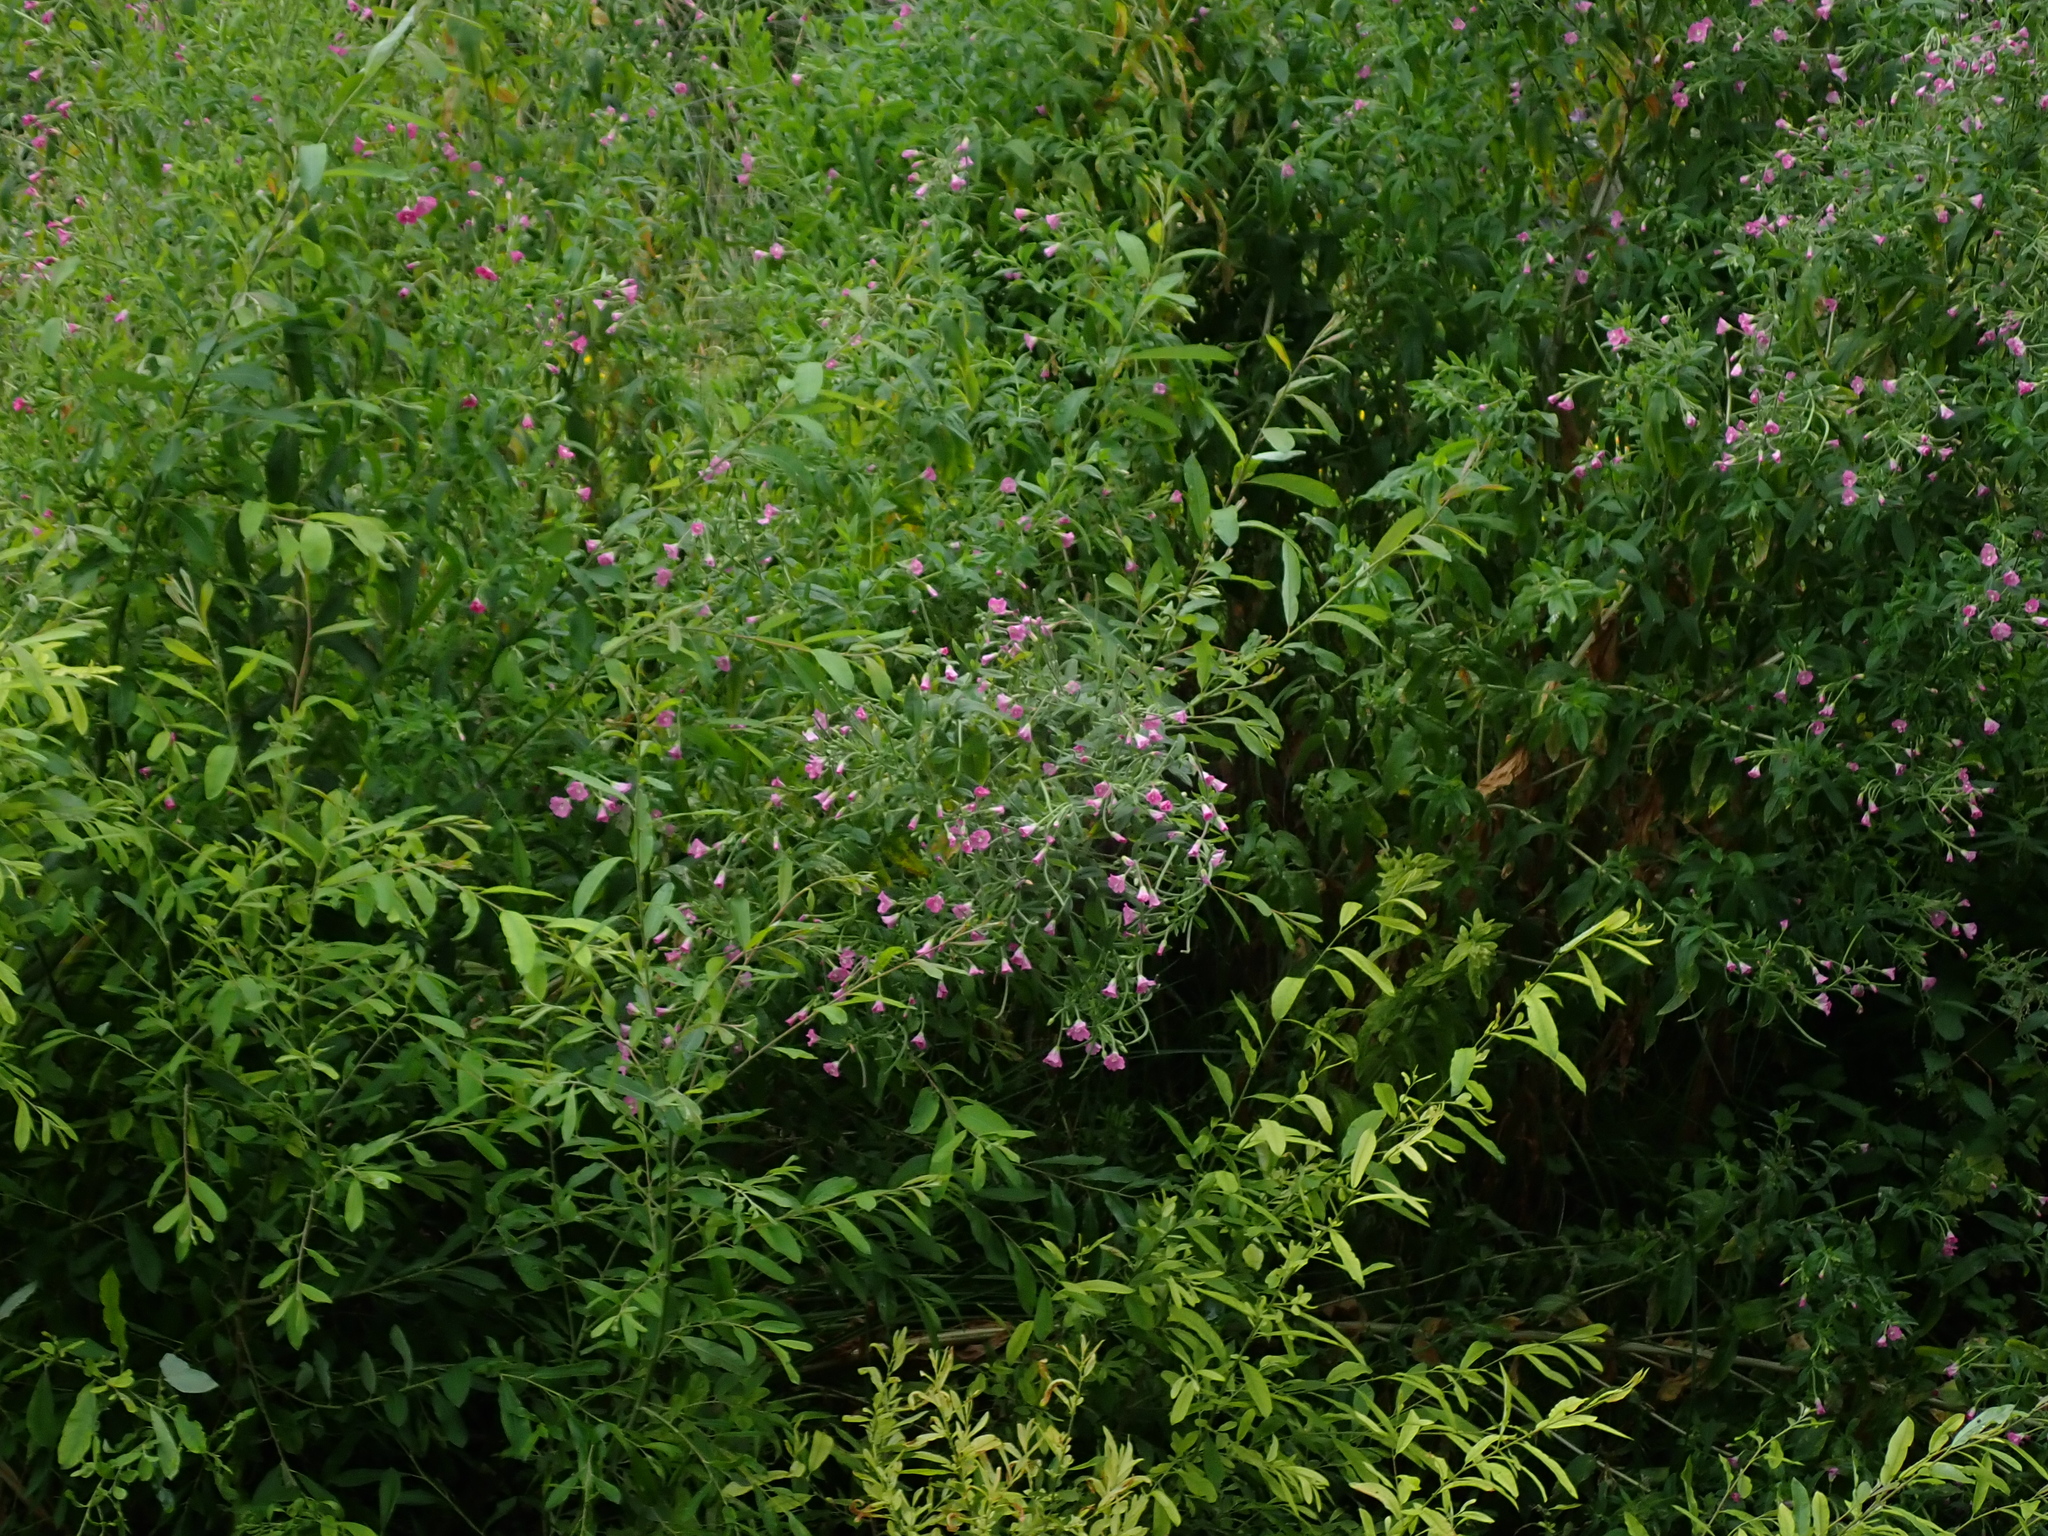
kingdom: Plantae
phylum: Tracheophyta
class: Magnoliopsida
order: Myrtales
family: Onagraceae
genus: Epilobium
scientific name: Epilobium hirsutum
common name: Great willowherb
